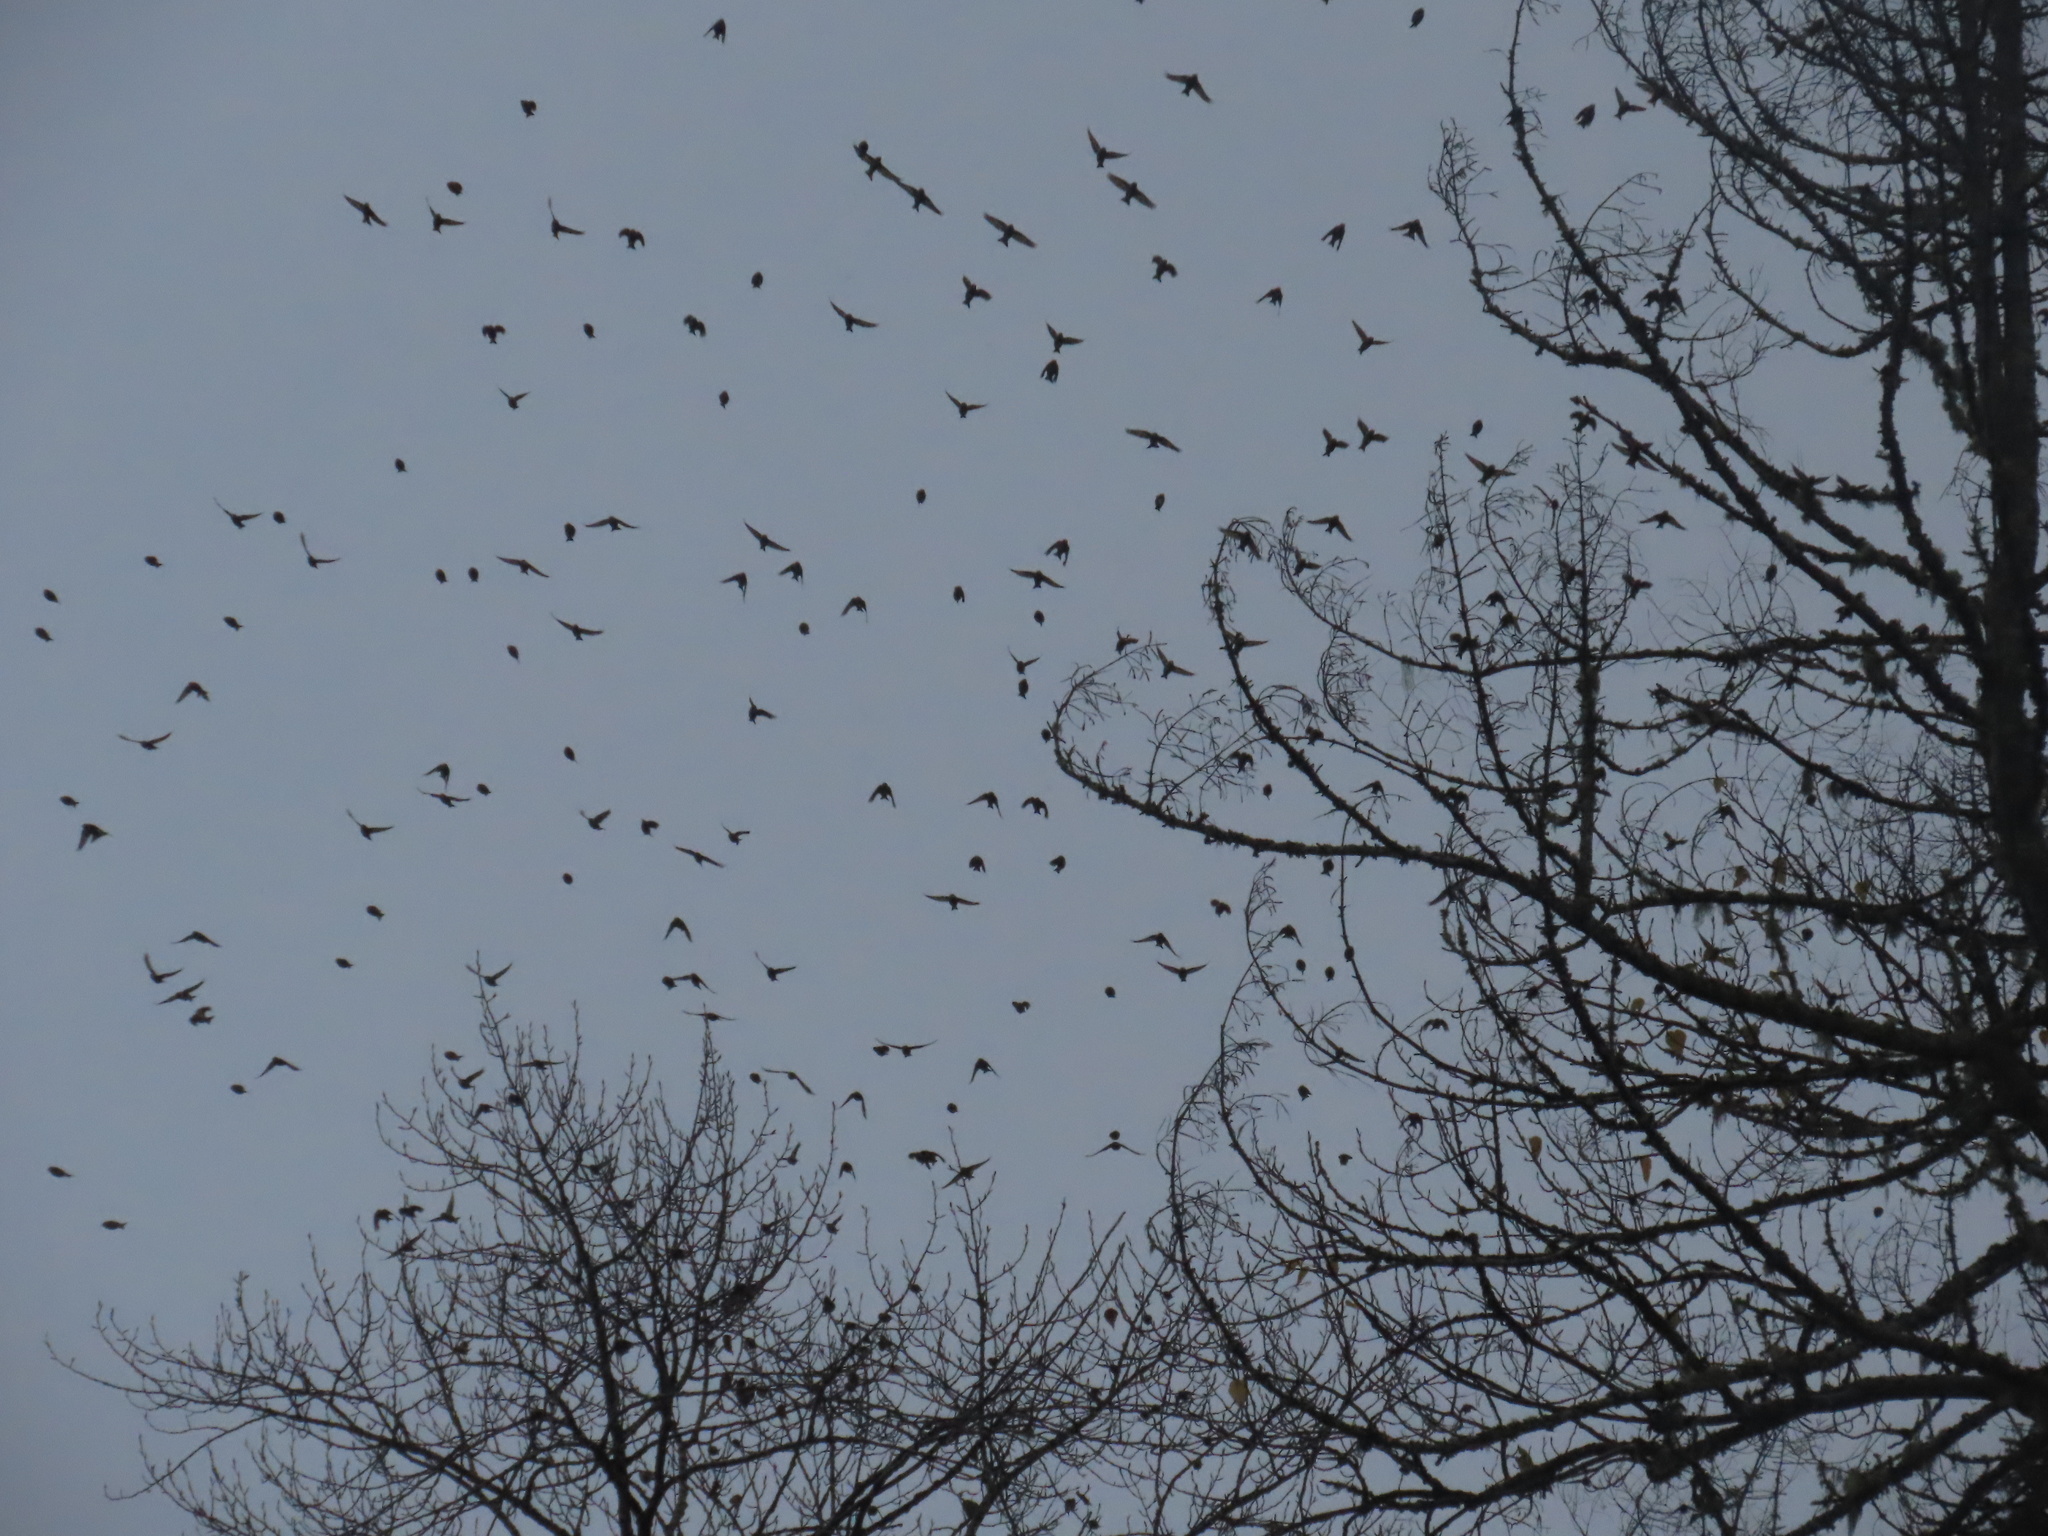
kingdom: Animalia
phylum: Chordata
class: Aves
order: Passeriformes
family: Fringillidae
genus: Spinus
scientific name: Spinus pinus
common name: Pine siskin
